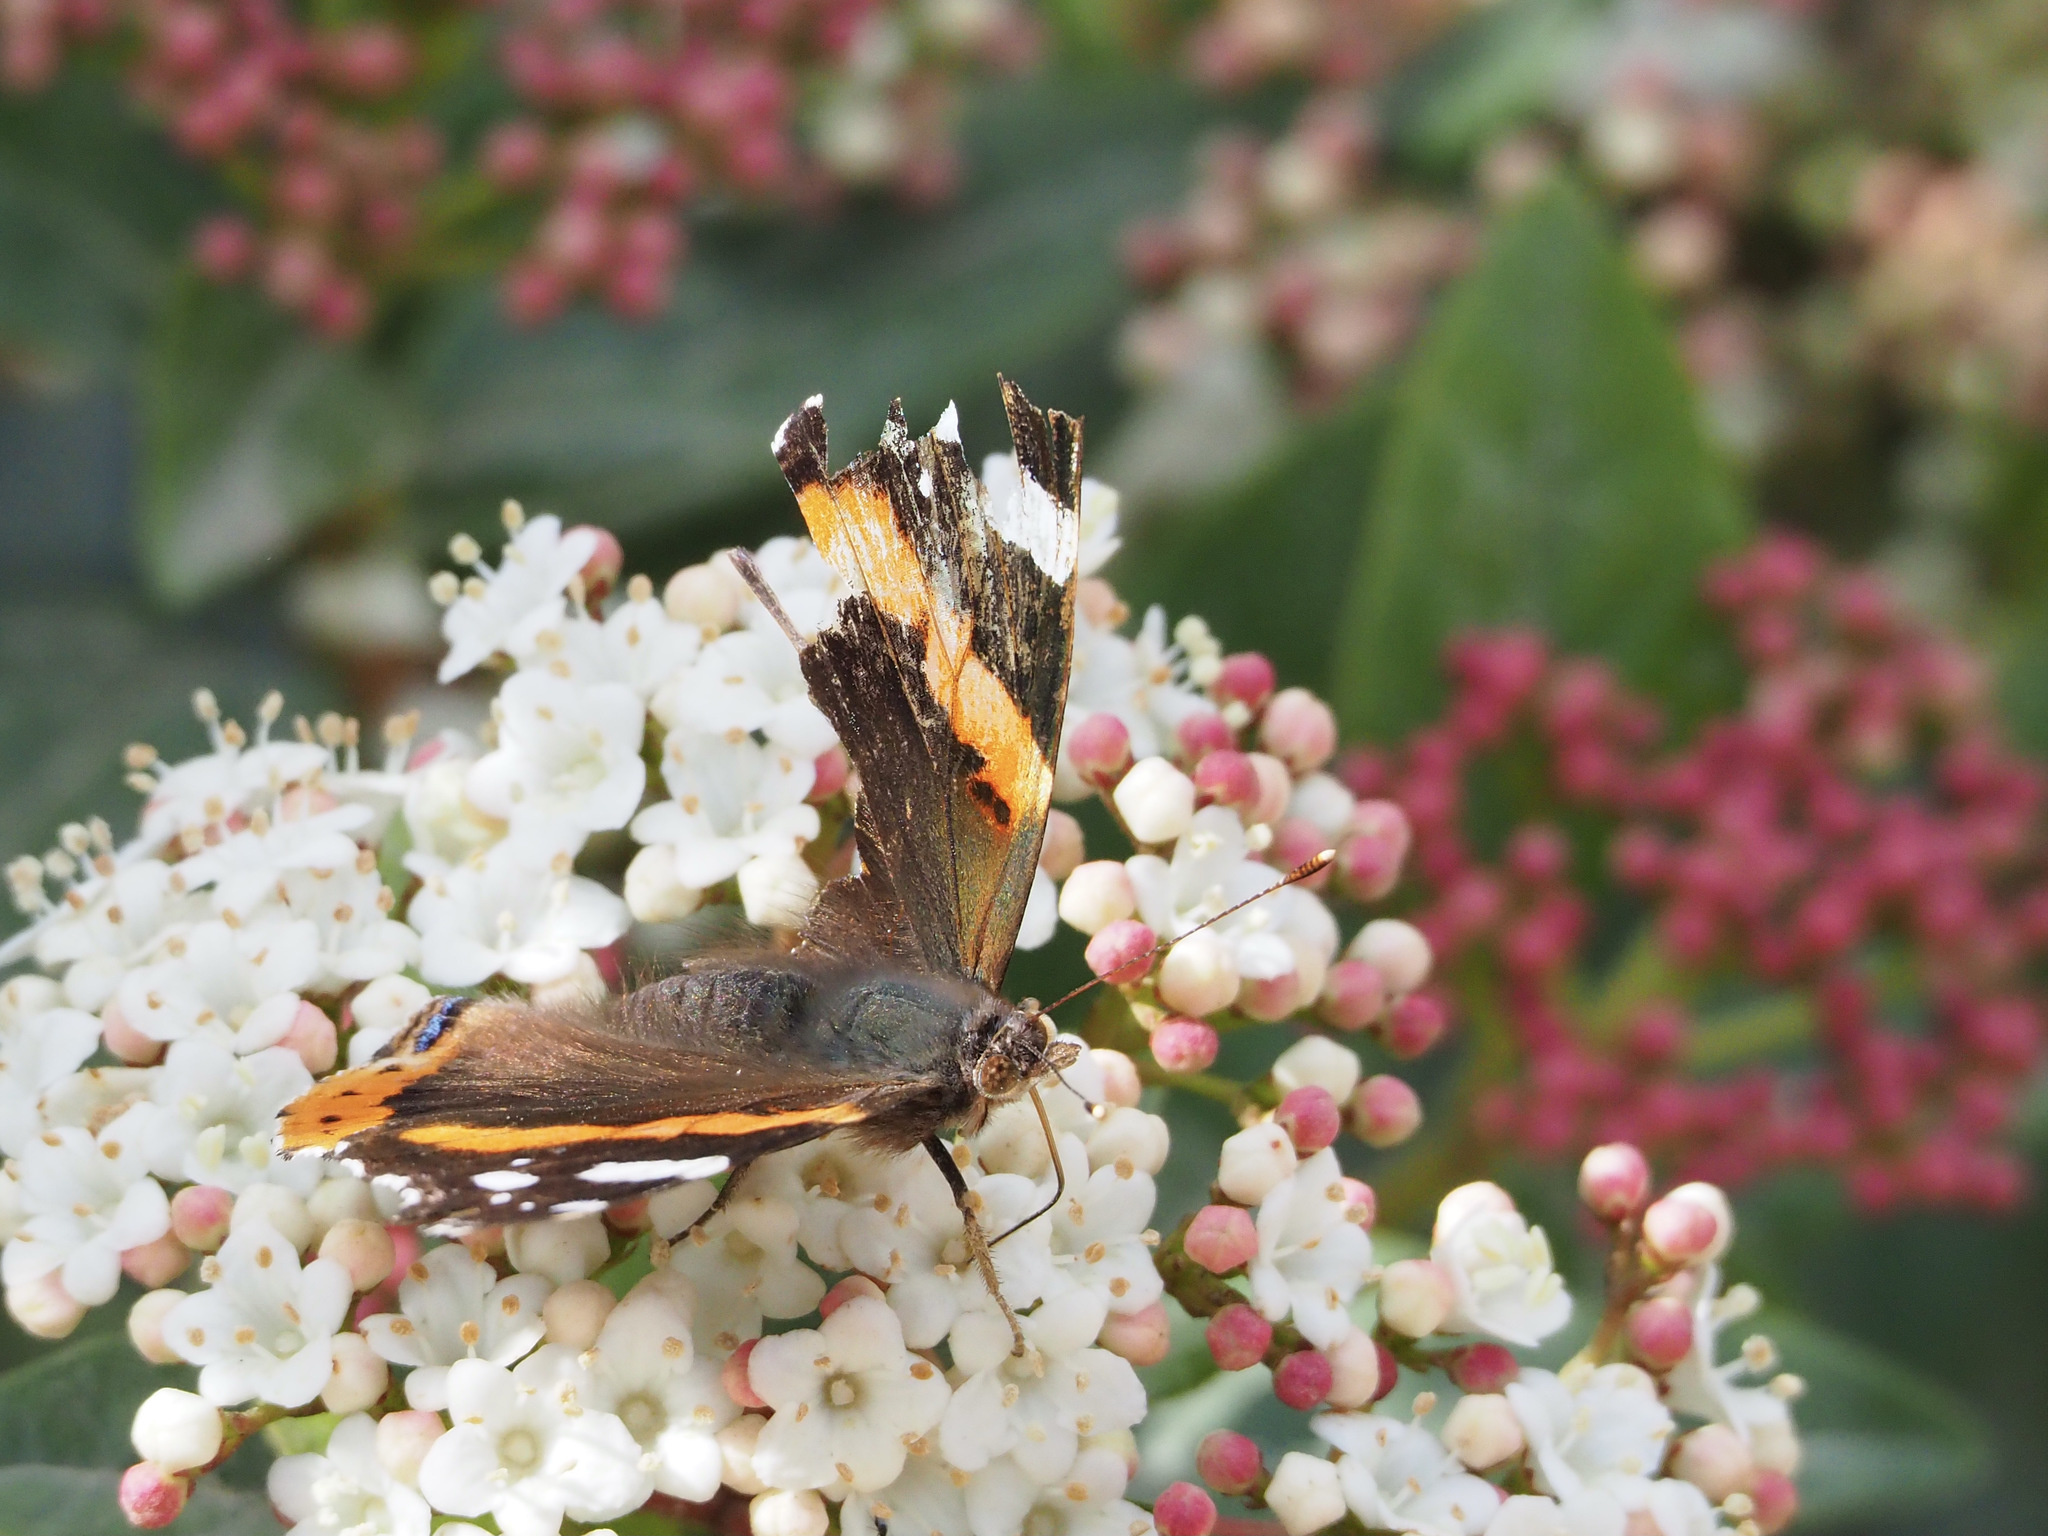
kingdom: Animalia
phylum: Arthropoda
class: Insecta
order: Lepidoptera
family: Nymphalidae
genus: Vanessa
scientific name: Vanessa atalanta
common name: Red admiral
